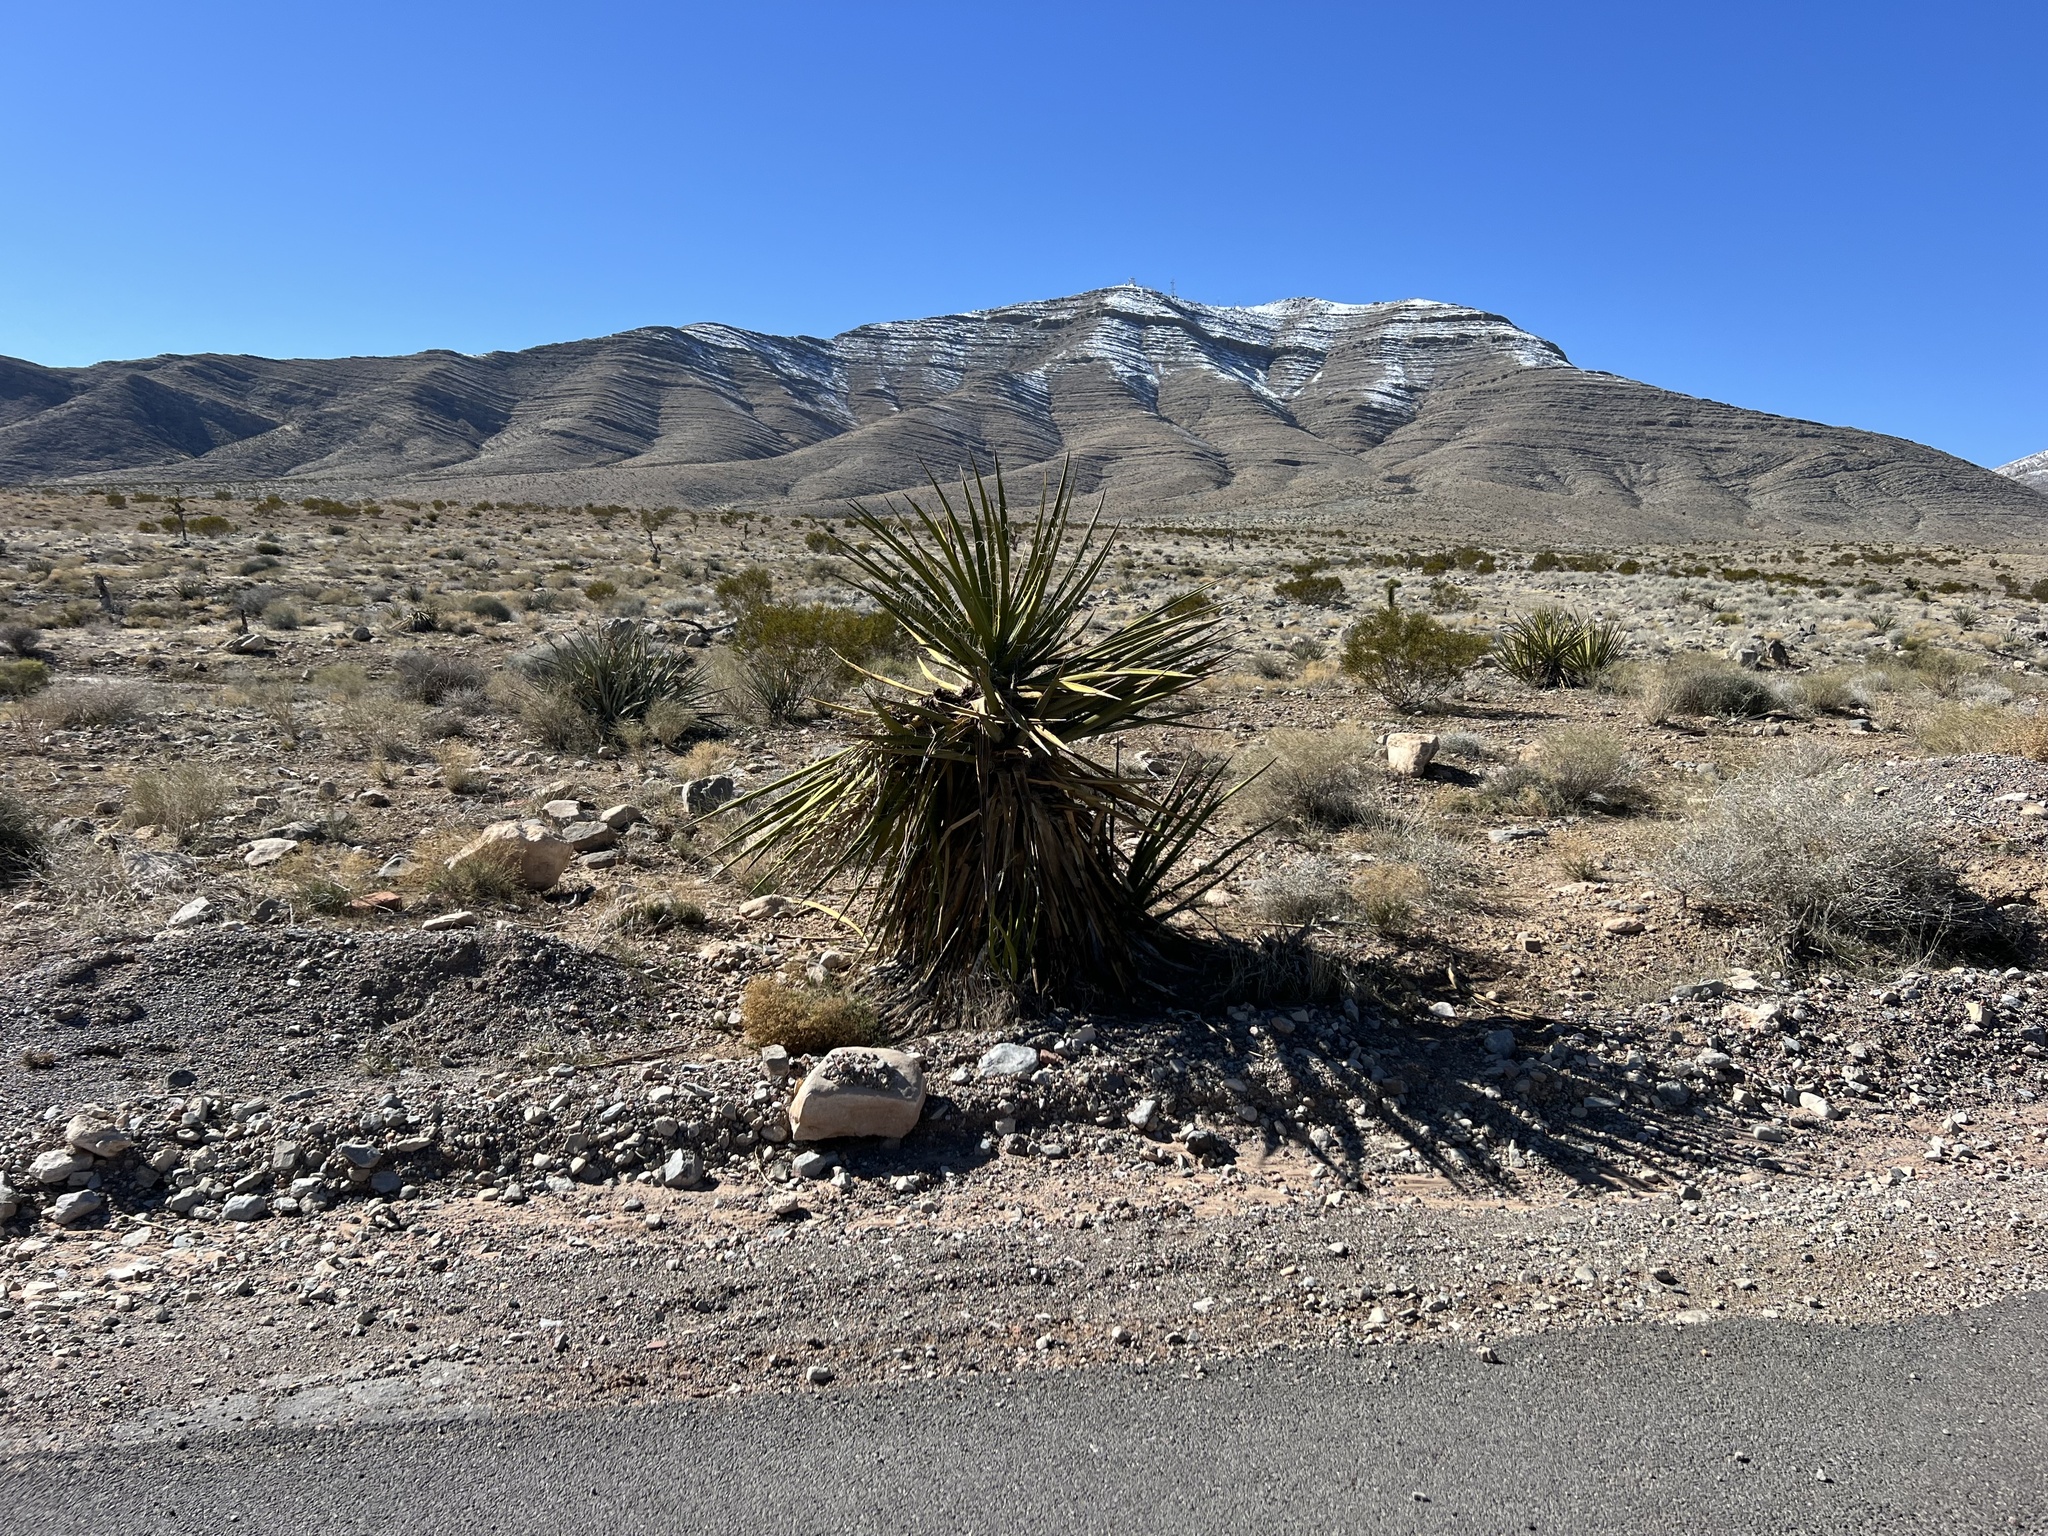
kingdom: Plantae
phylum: Tracheophyta
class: Liliopsida
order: Asparagales
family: Asparagaceae
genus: Yucca
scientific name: Yucca schidigera
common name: Mojave yucca
